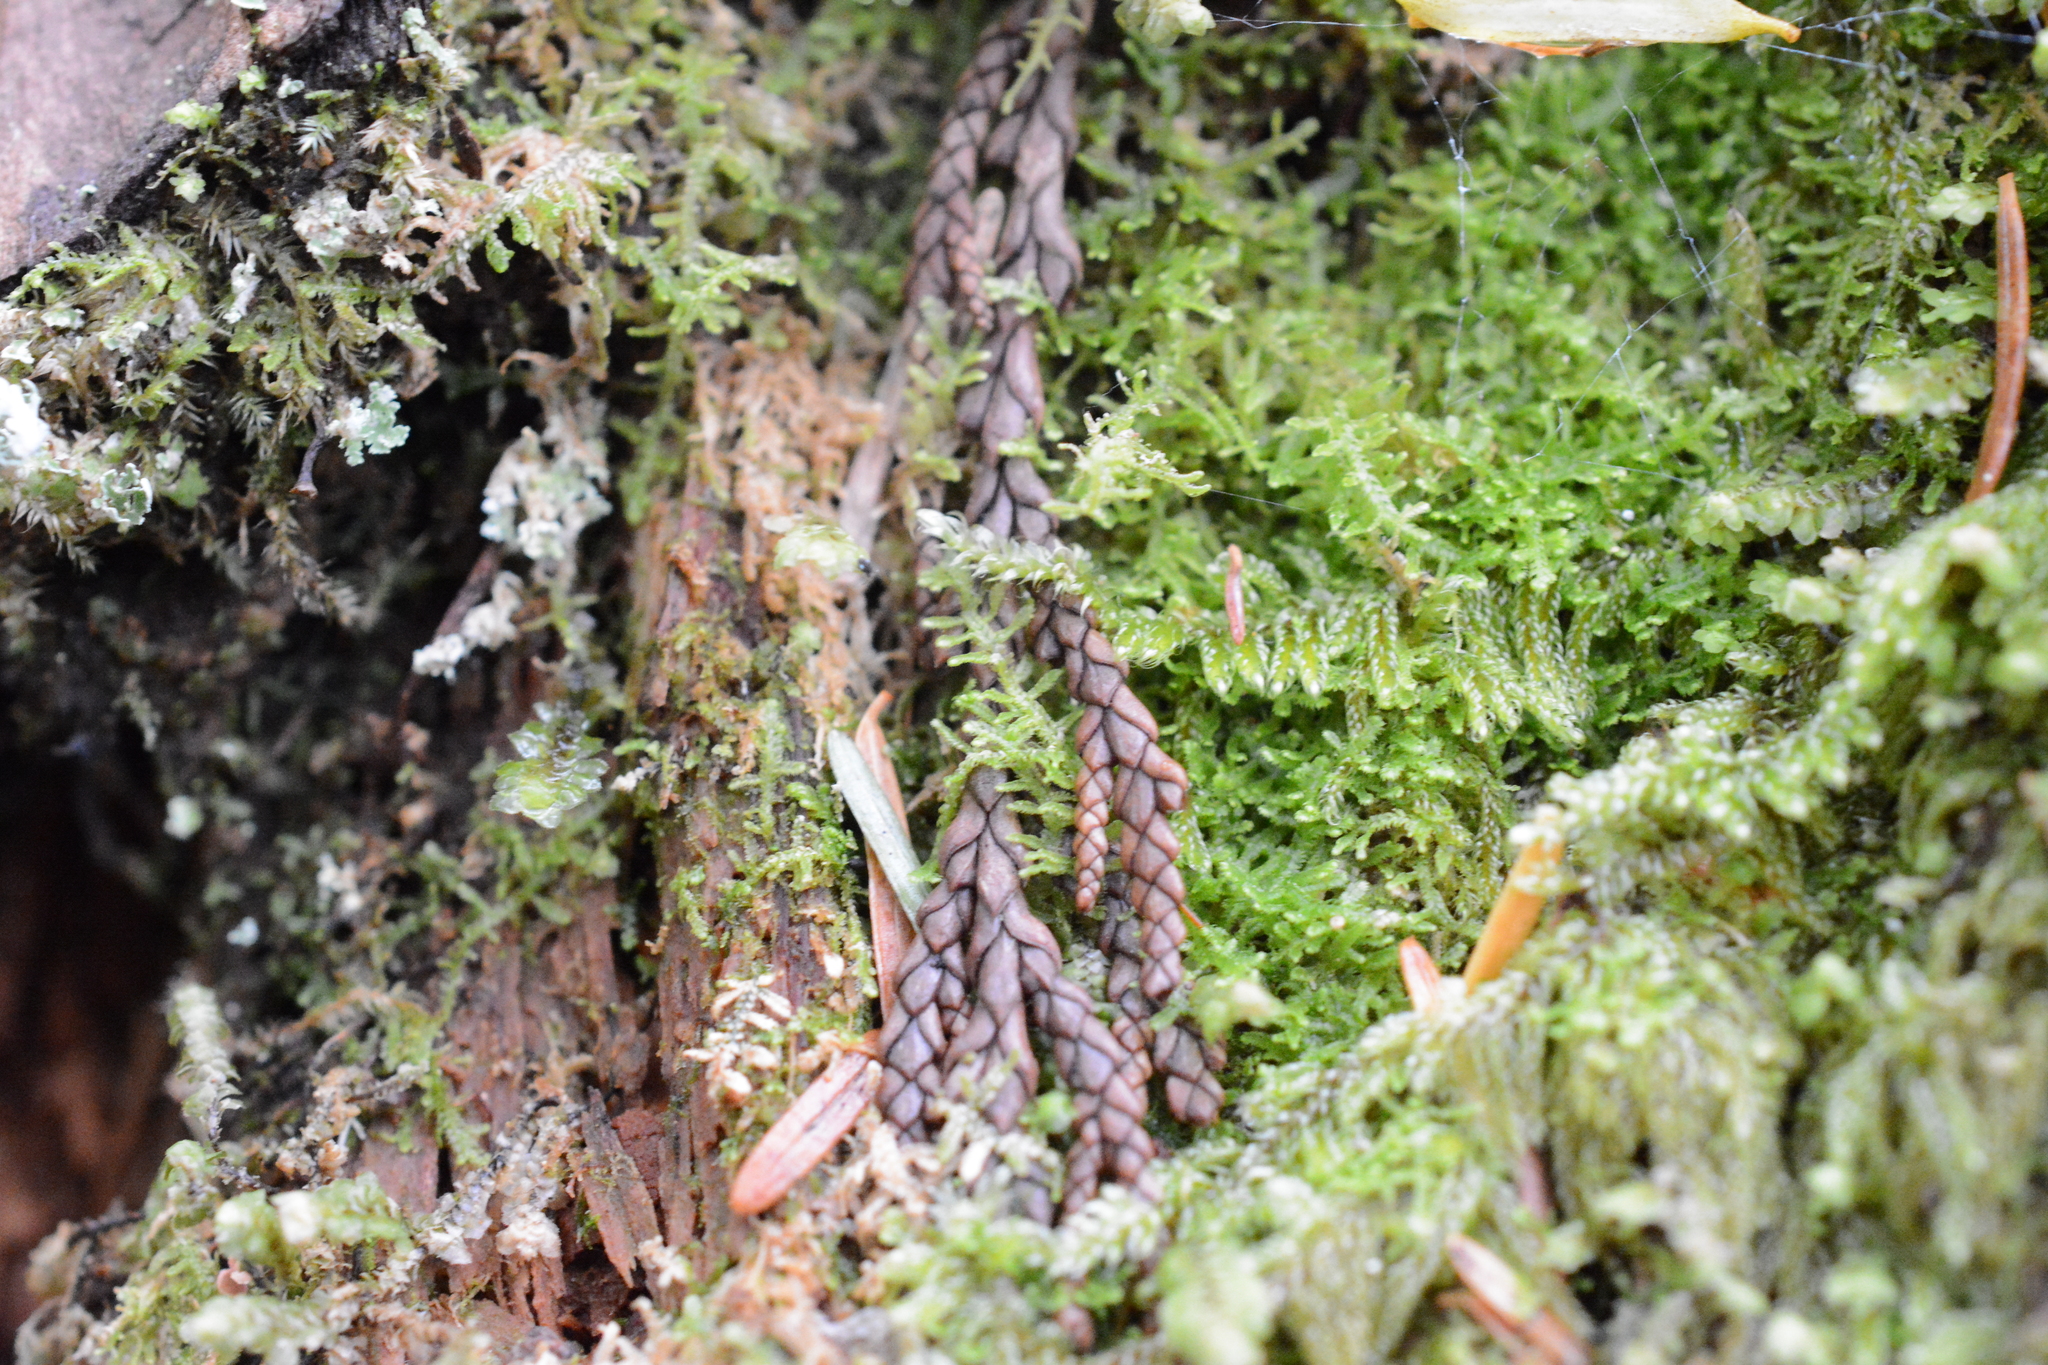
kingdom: Plantae
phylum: Marchantiophyta
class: Jungermanniopsida
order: Jungermanniales
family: Lepidoziaceae
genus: Lepidozia
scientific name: Lepidozia reptans
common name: Creeping fingerwort
